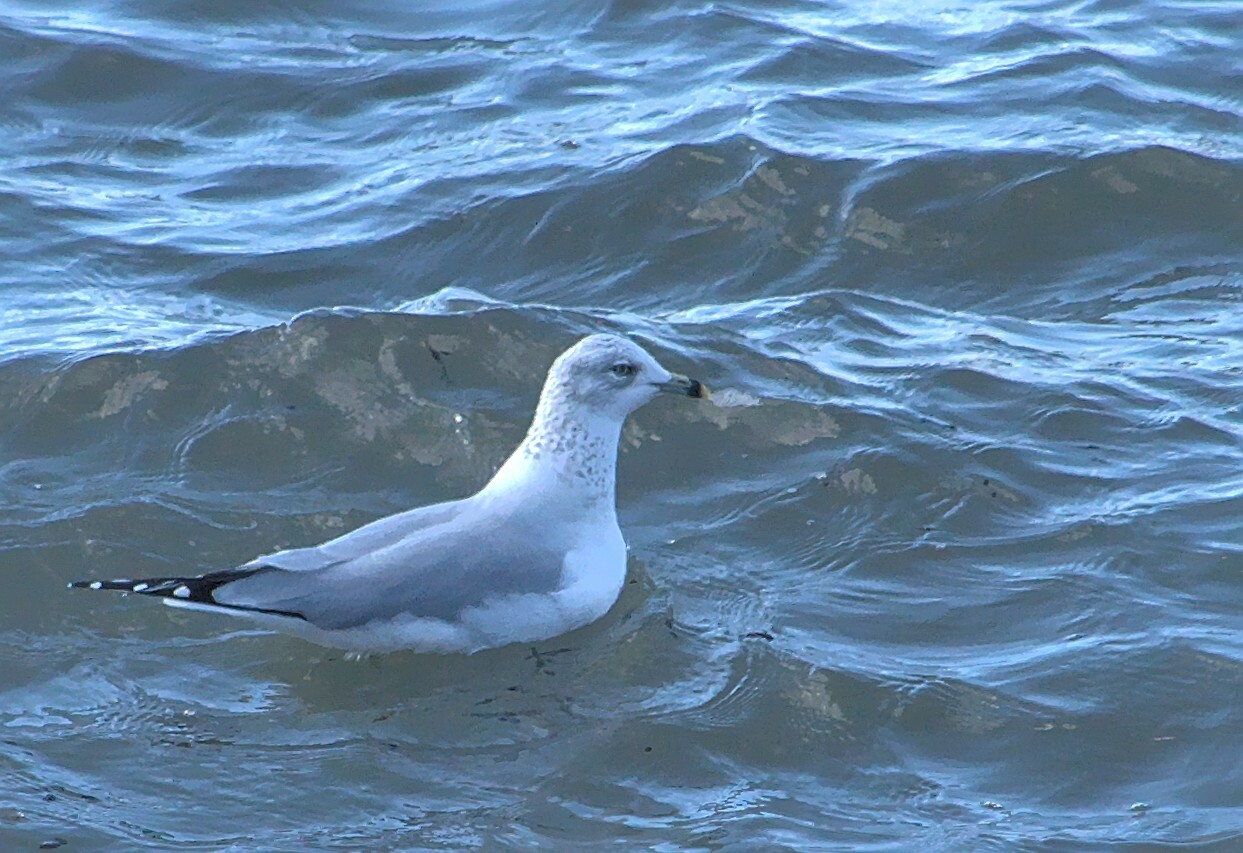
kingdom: Animalia
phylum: Chordata
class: Aves
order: Charadriiformes
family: Laridae
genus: Larus
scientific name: Larus delawarensis
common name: Ring-billed gull
